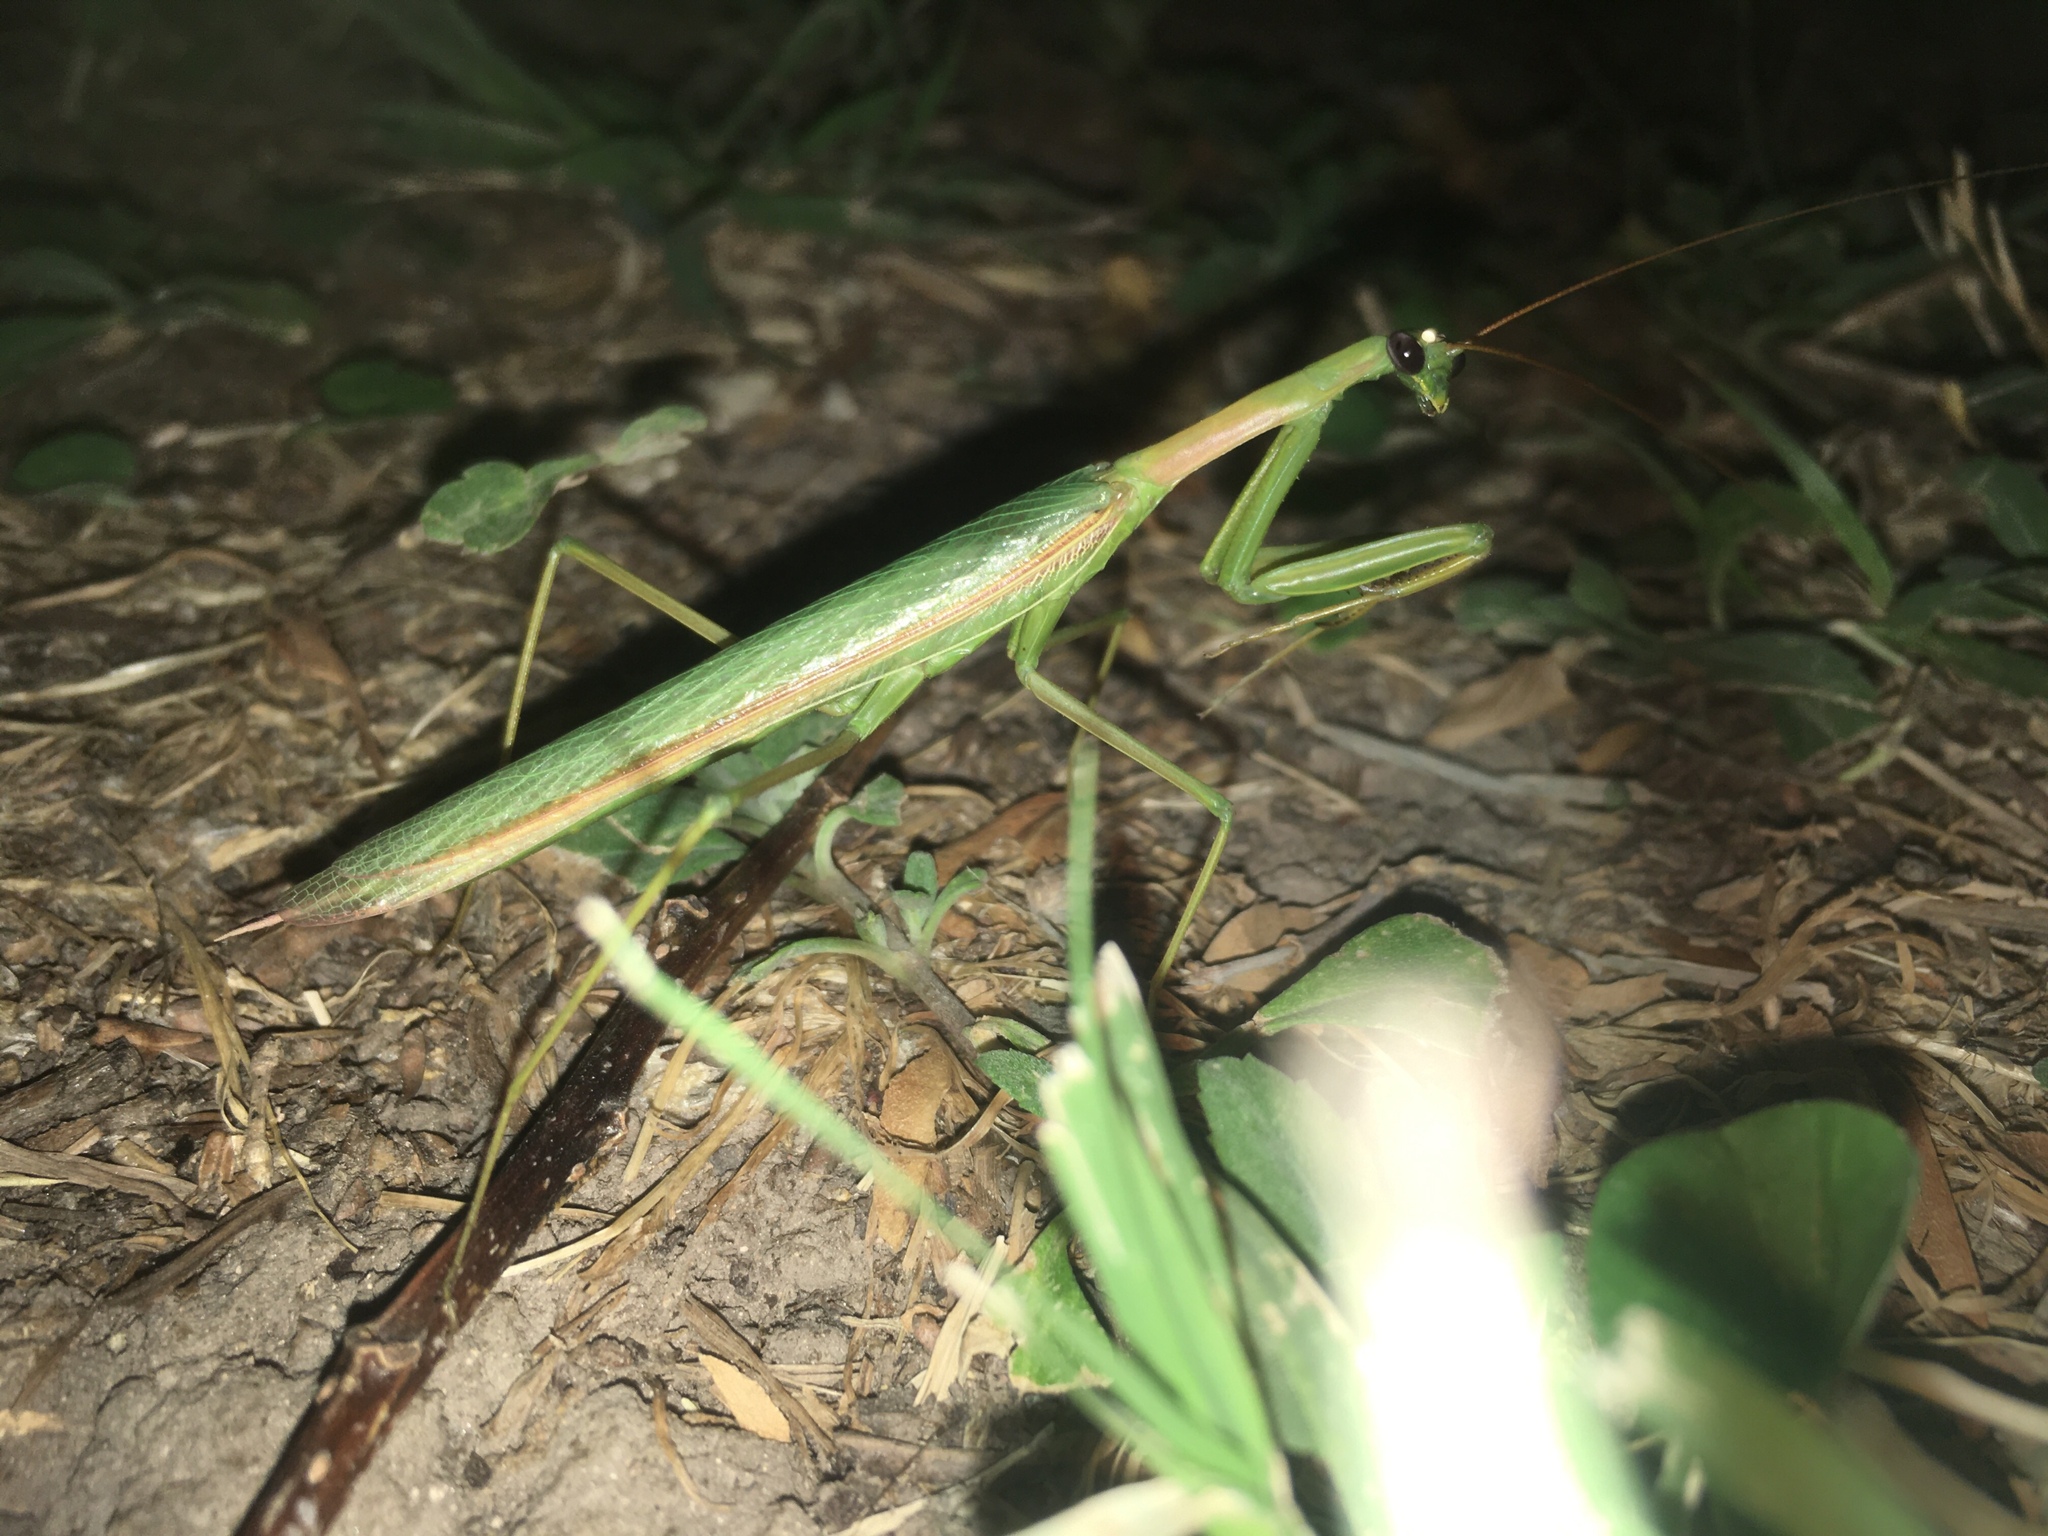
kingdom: Animalia
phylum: Arthropoda
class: Insecta
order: Mantodea
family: Coptopterygidae
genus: Coptopteryx
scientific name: Coptopteryx argentina
